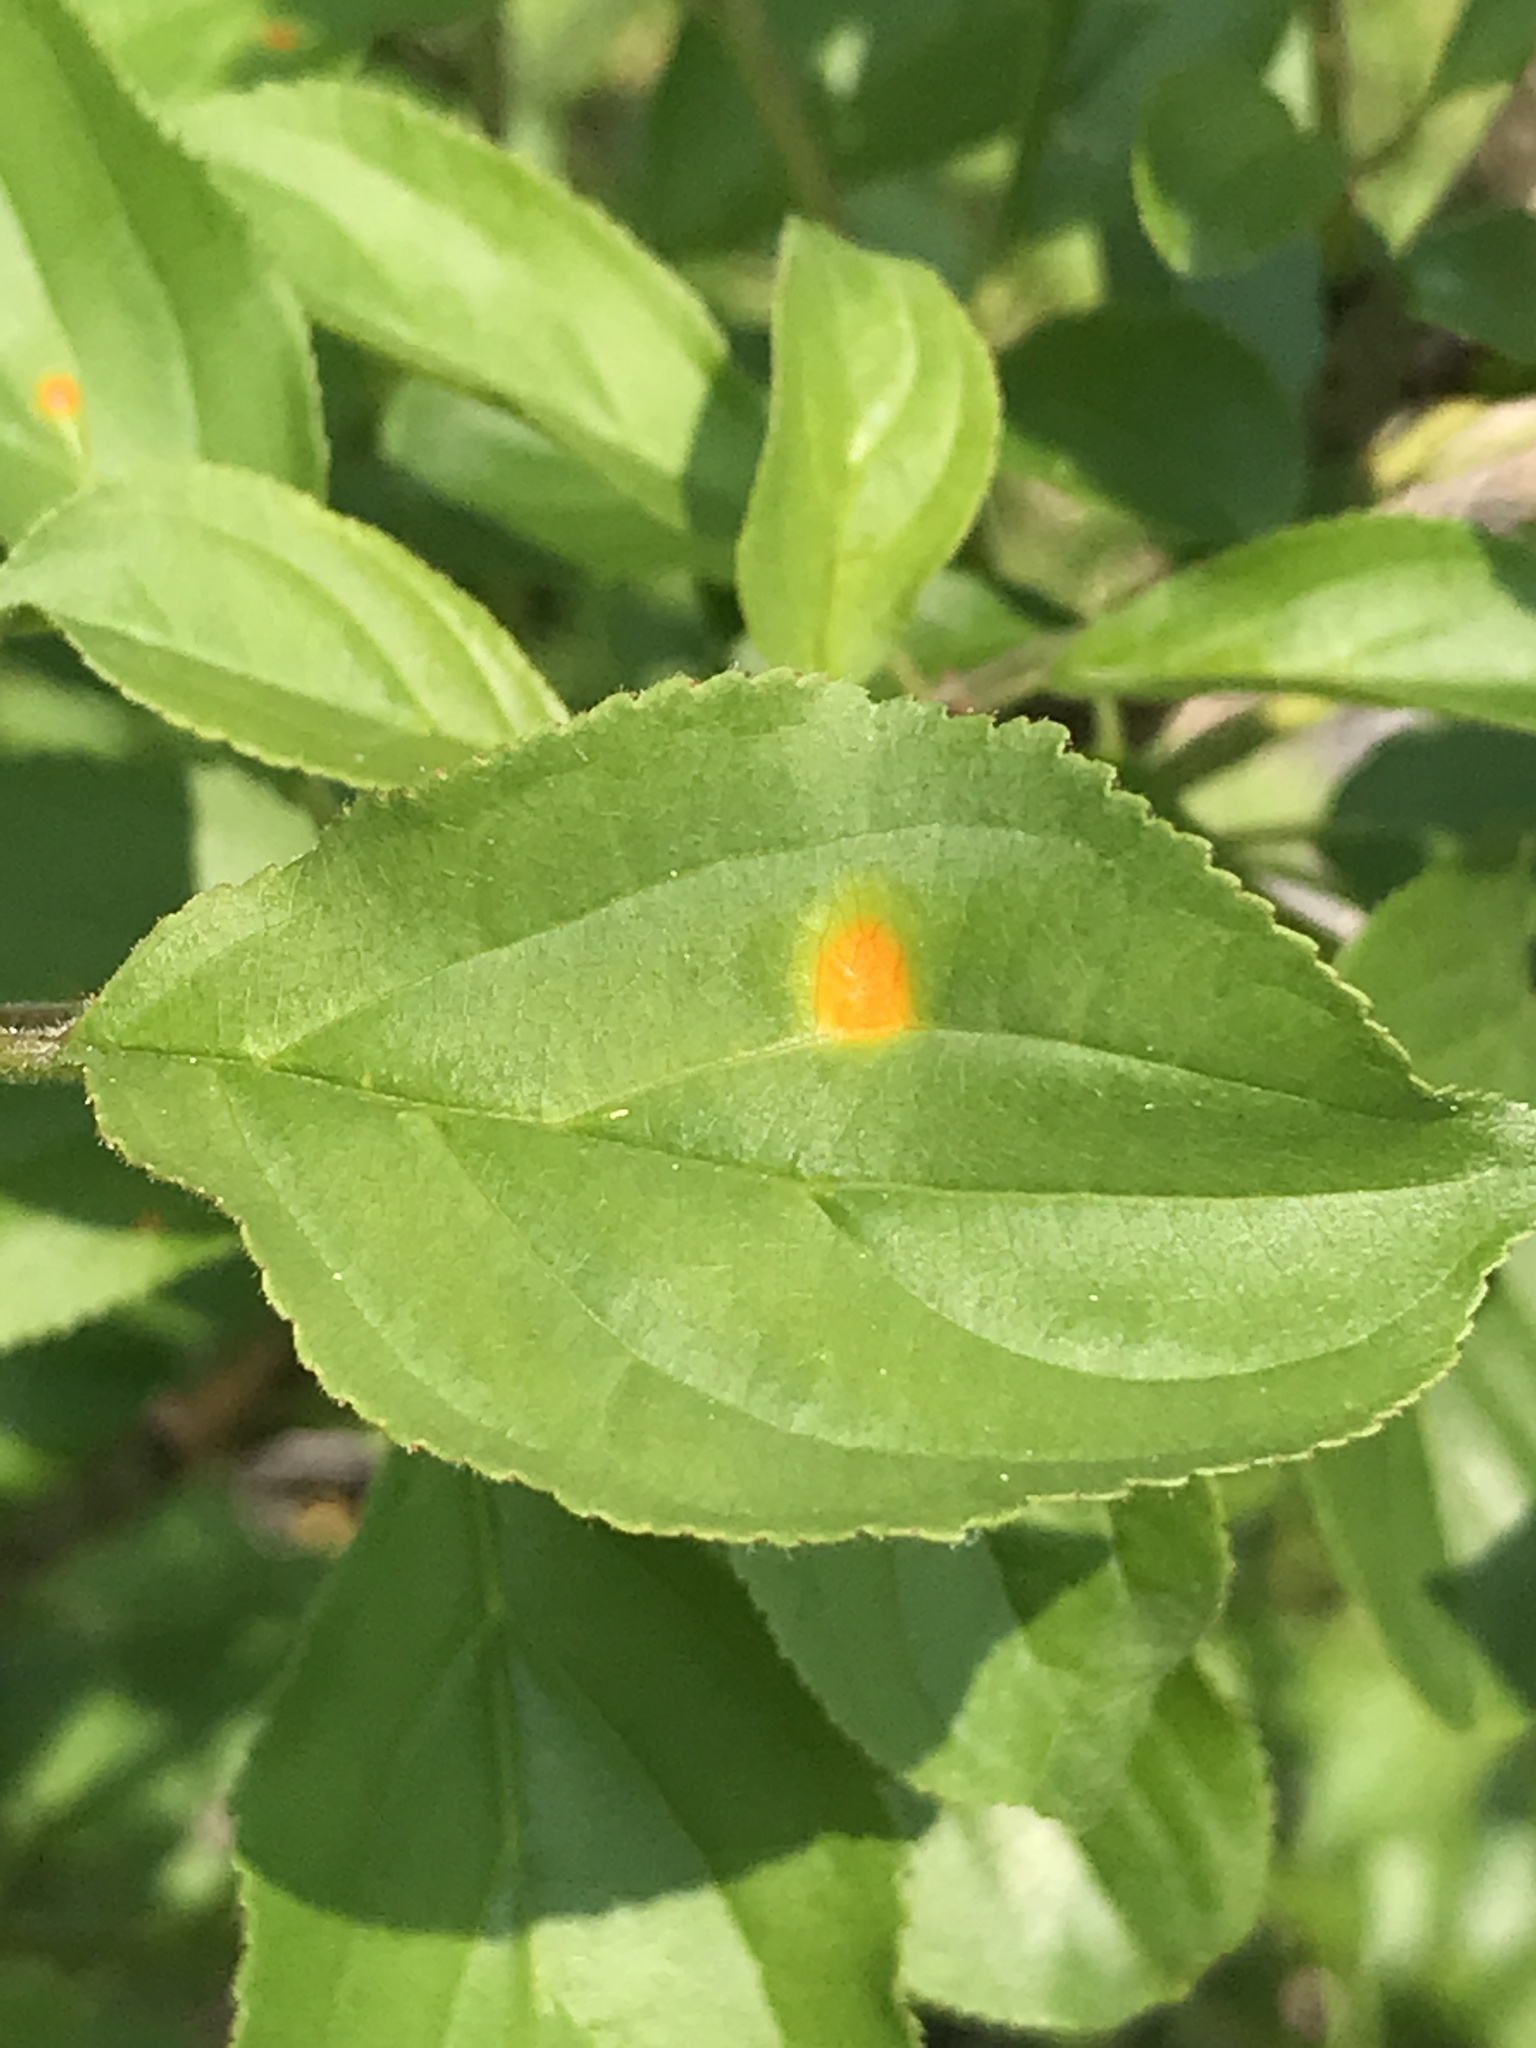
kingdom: Fungi
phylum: Basidiomycota
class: Pucciniomycetes
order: Pucciniales
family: Pucciniaceae
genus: Puccinia
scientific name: Puccinia coronata
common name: Crown rust
